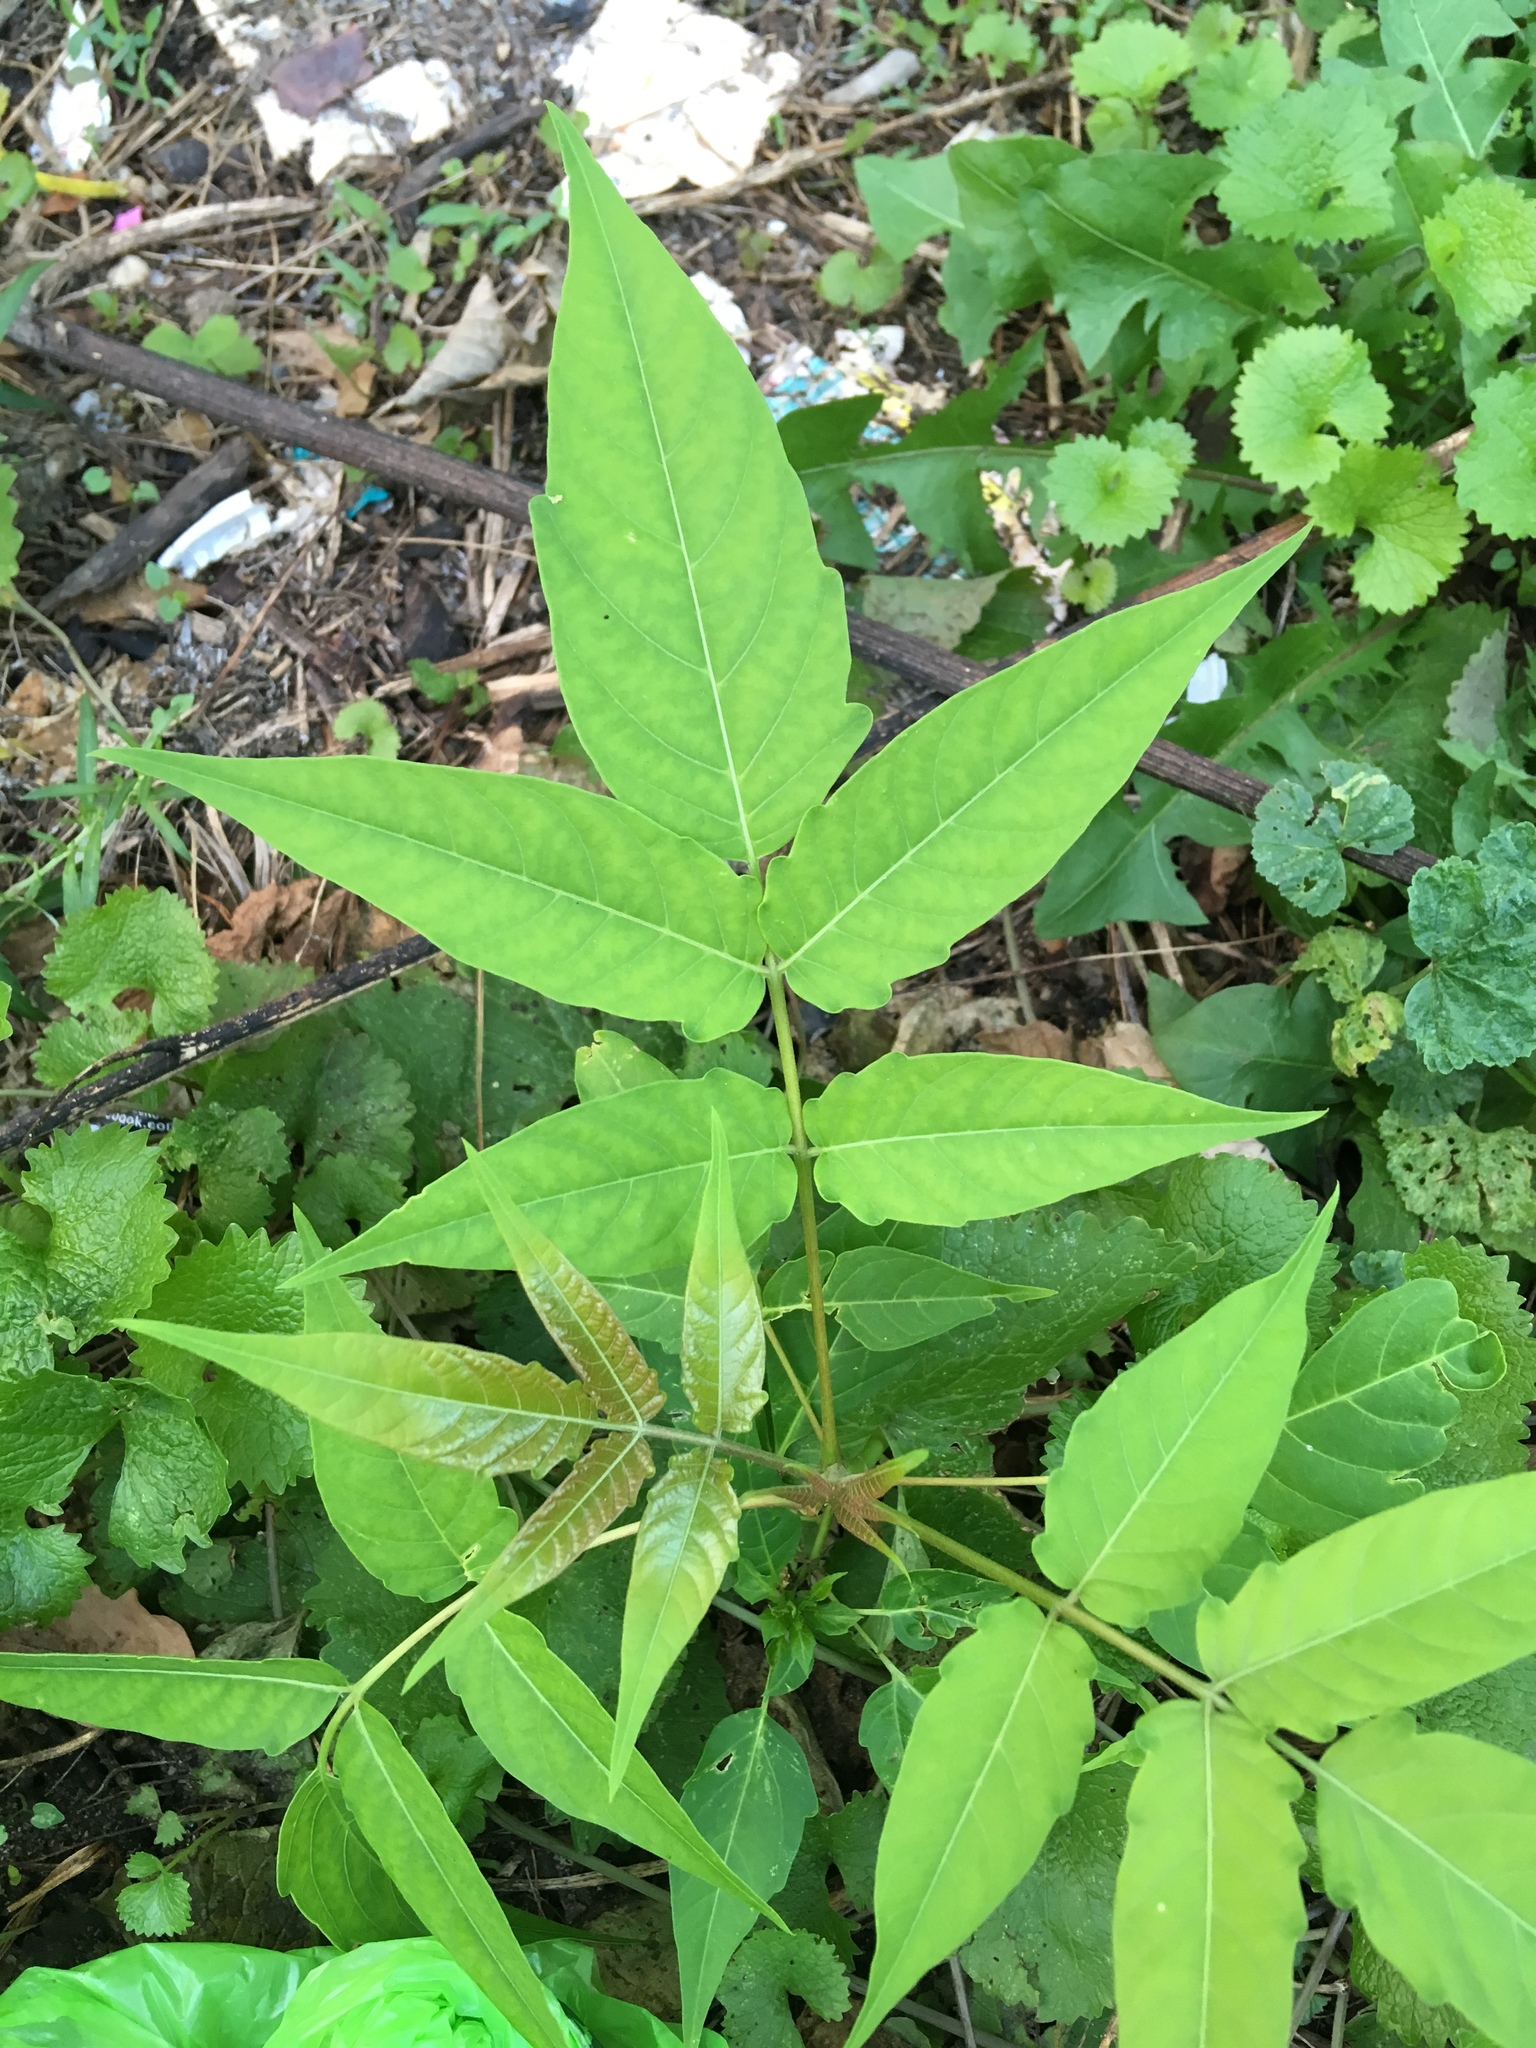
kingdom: Plantae
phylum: Tracheophyta
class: Magnoliopsida
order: Sapindales
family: Simaroubaceae
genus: Ailanthus
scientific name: Ailanthus altissima
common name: Tree-of-heaven
